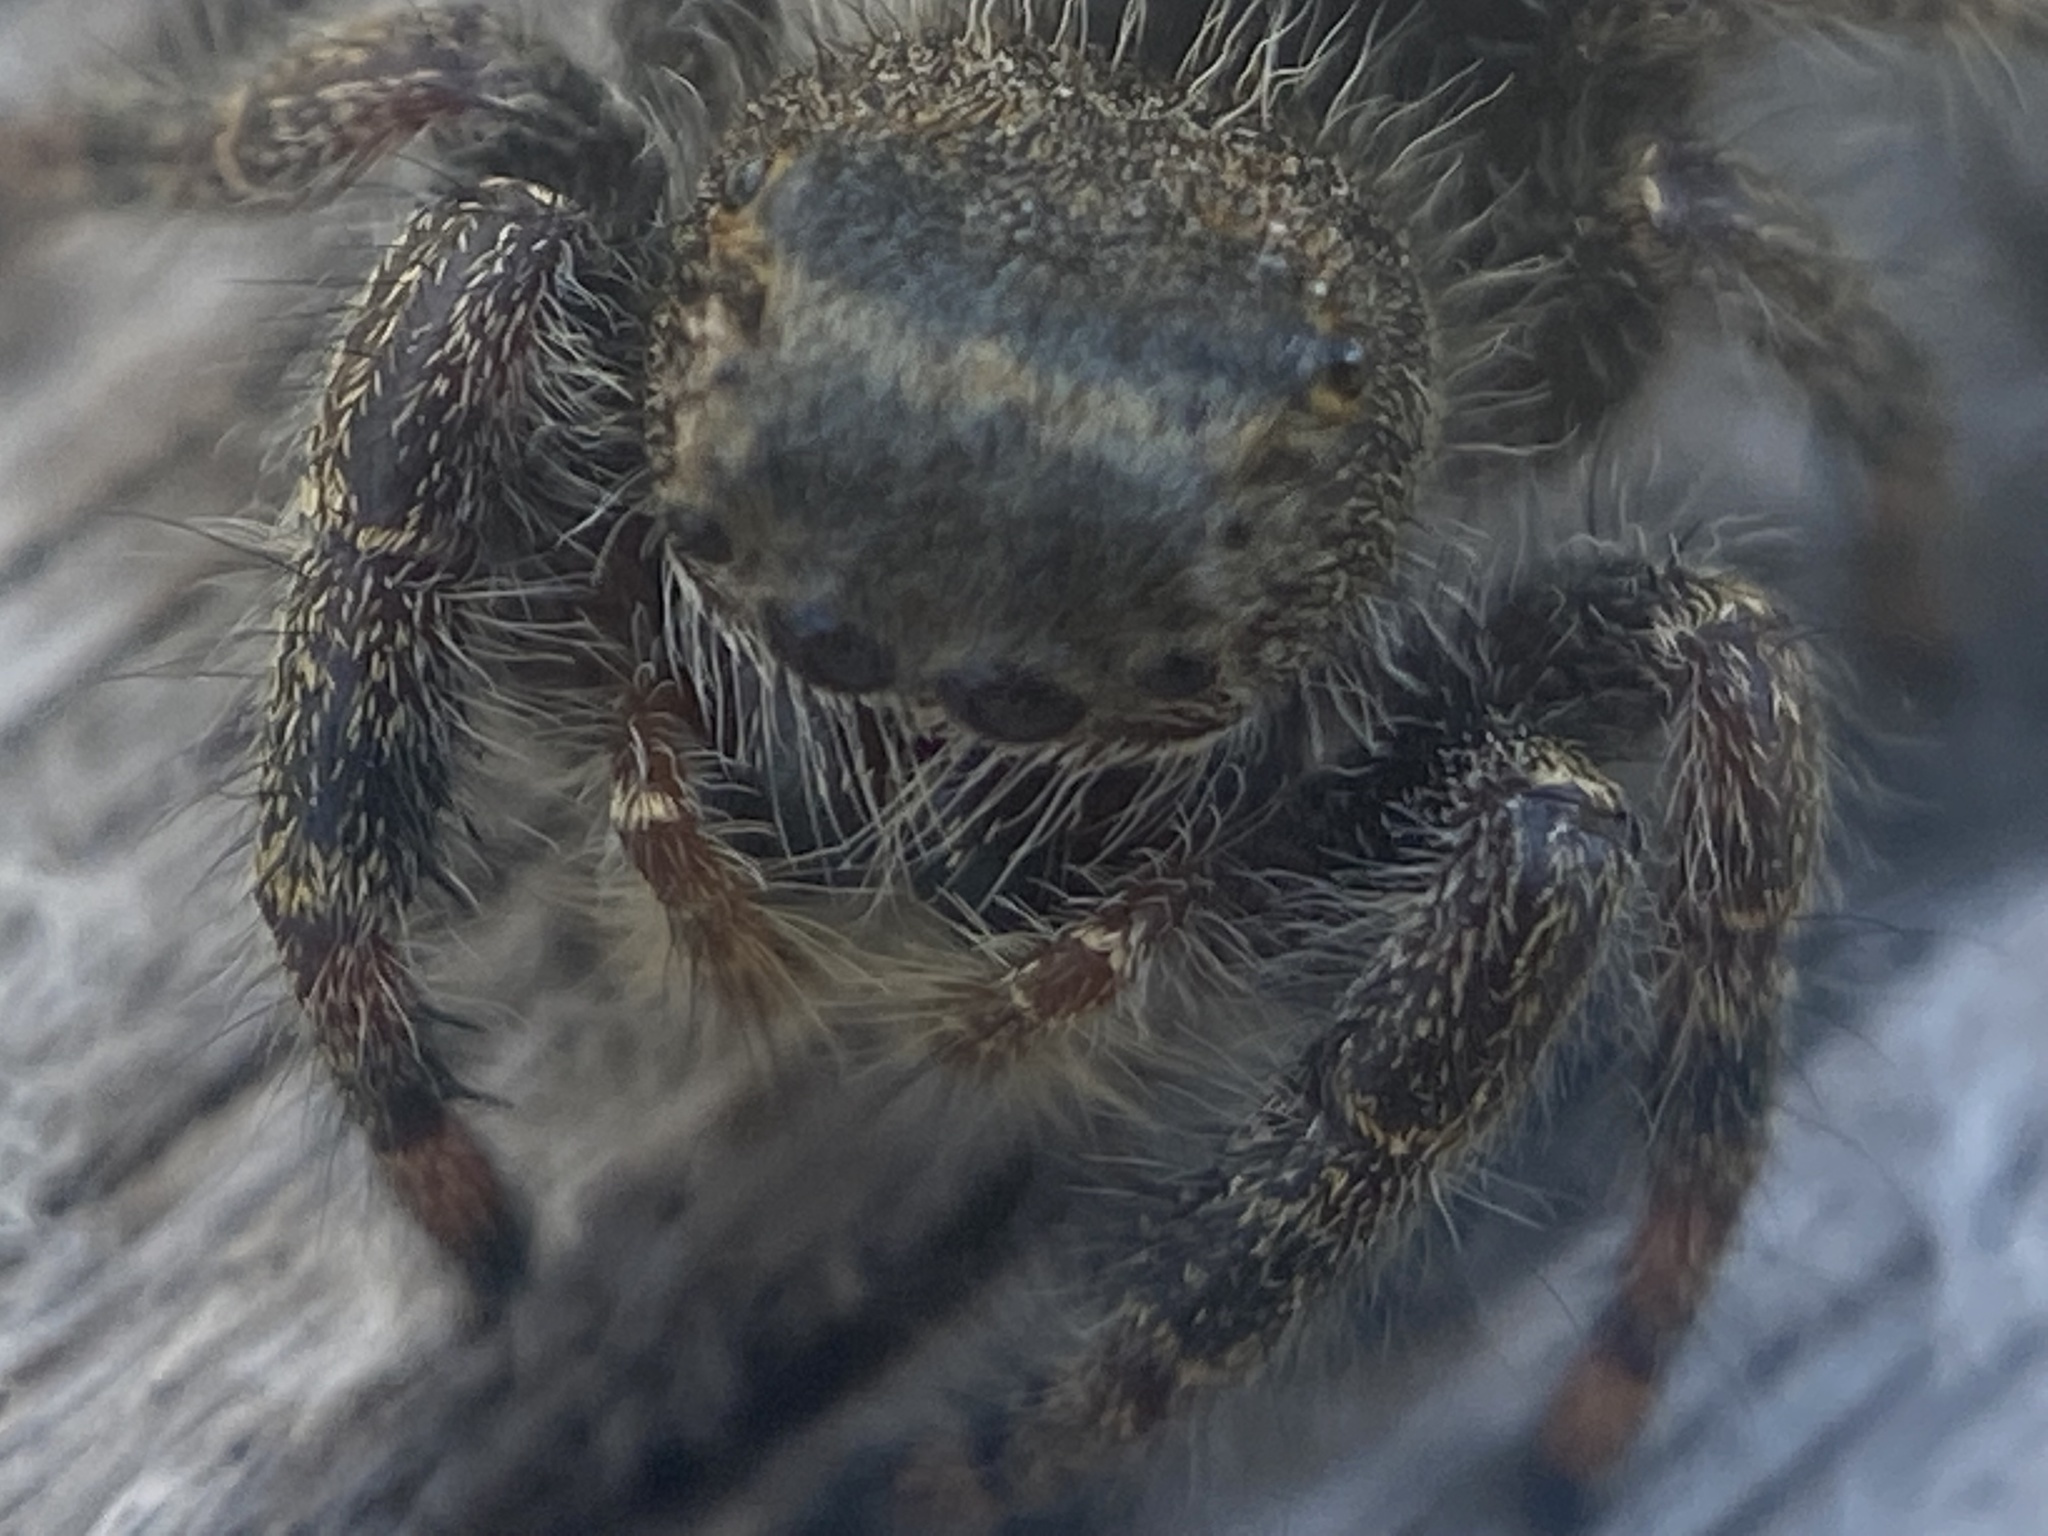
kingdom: Animalia
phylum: Arthropoda
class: Arachnida
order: Araneae
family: Salticidae
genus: Phidippus
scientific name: Phidippus audax
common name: Bold jumper
